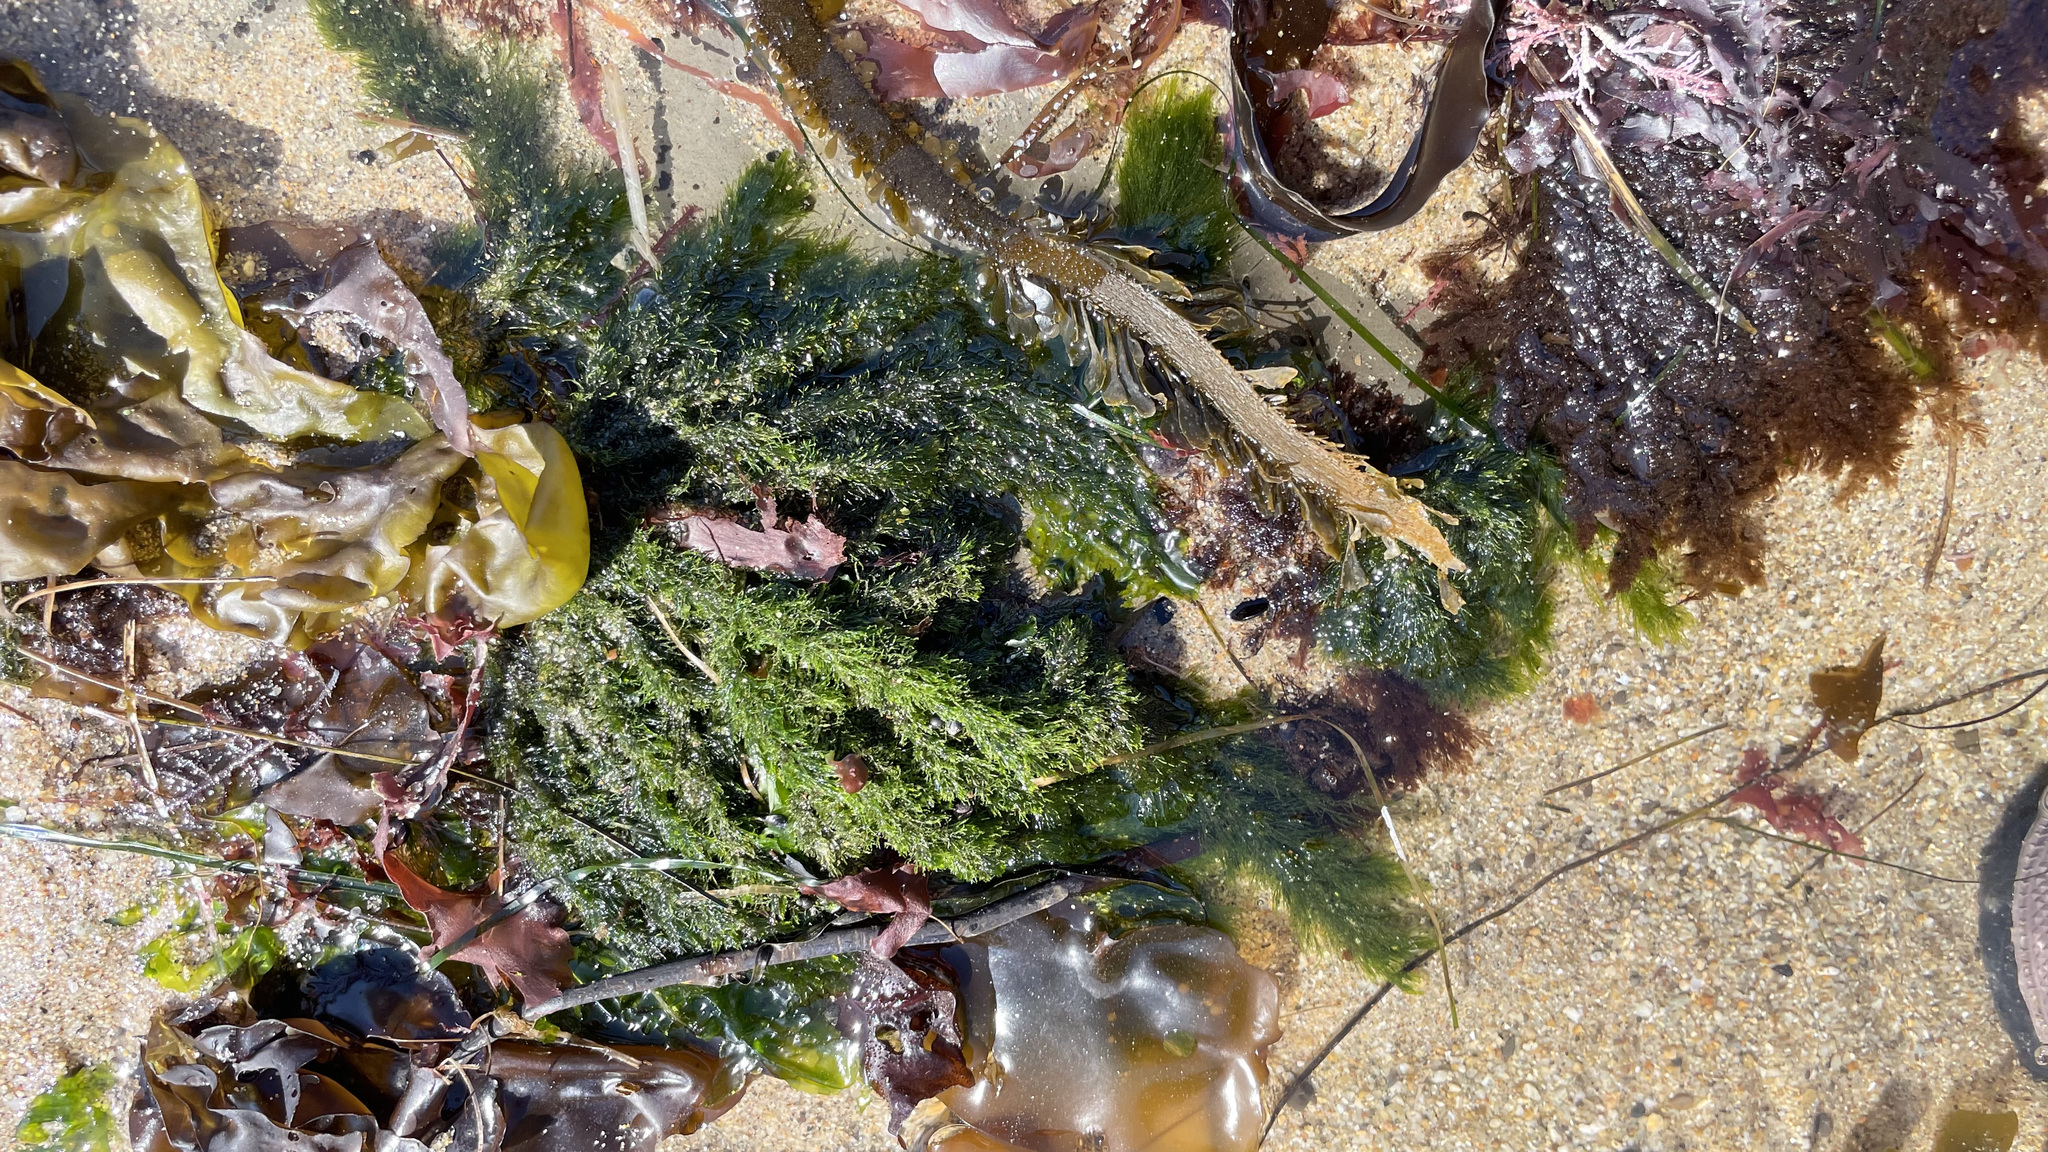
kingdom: Plantae
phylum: Chlorophyta
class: Ulvophyceae
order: Ulotrichales
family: Ulotrichaceae
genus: Acrosiphonia
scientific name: Acrosiphonia
